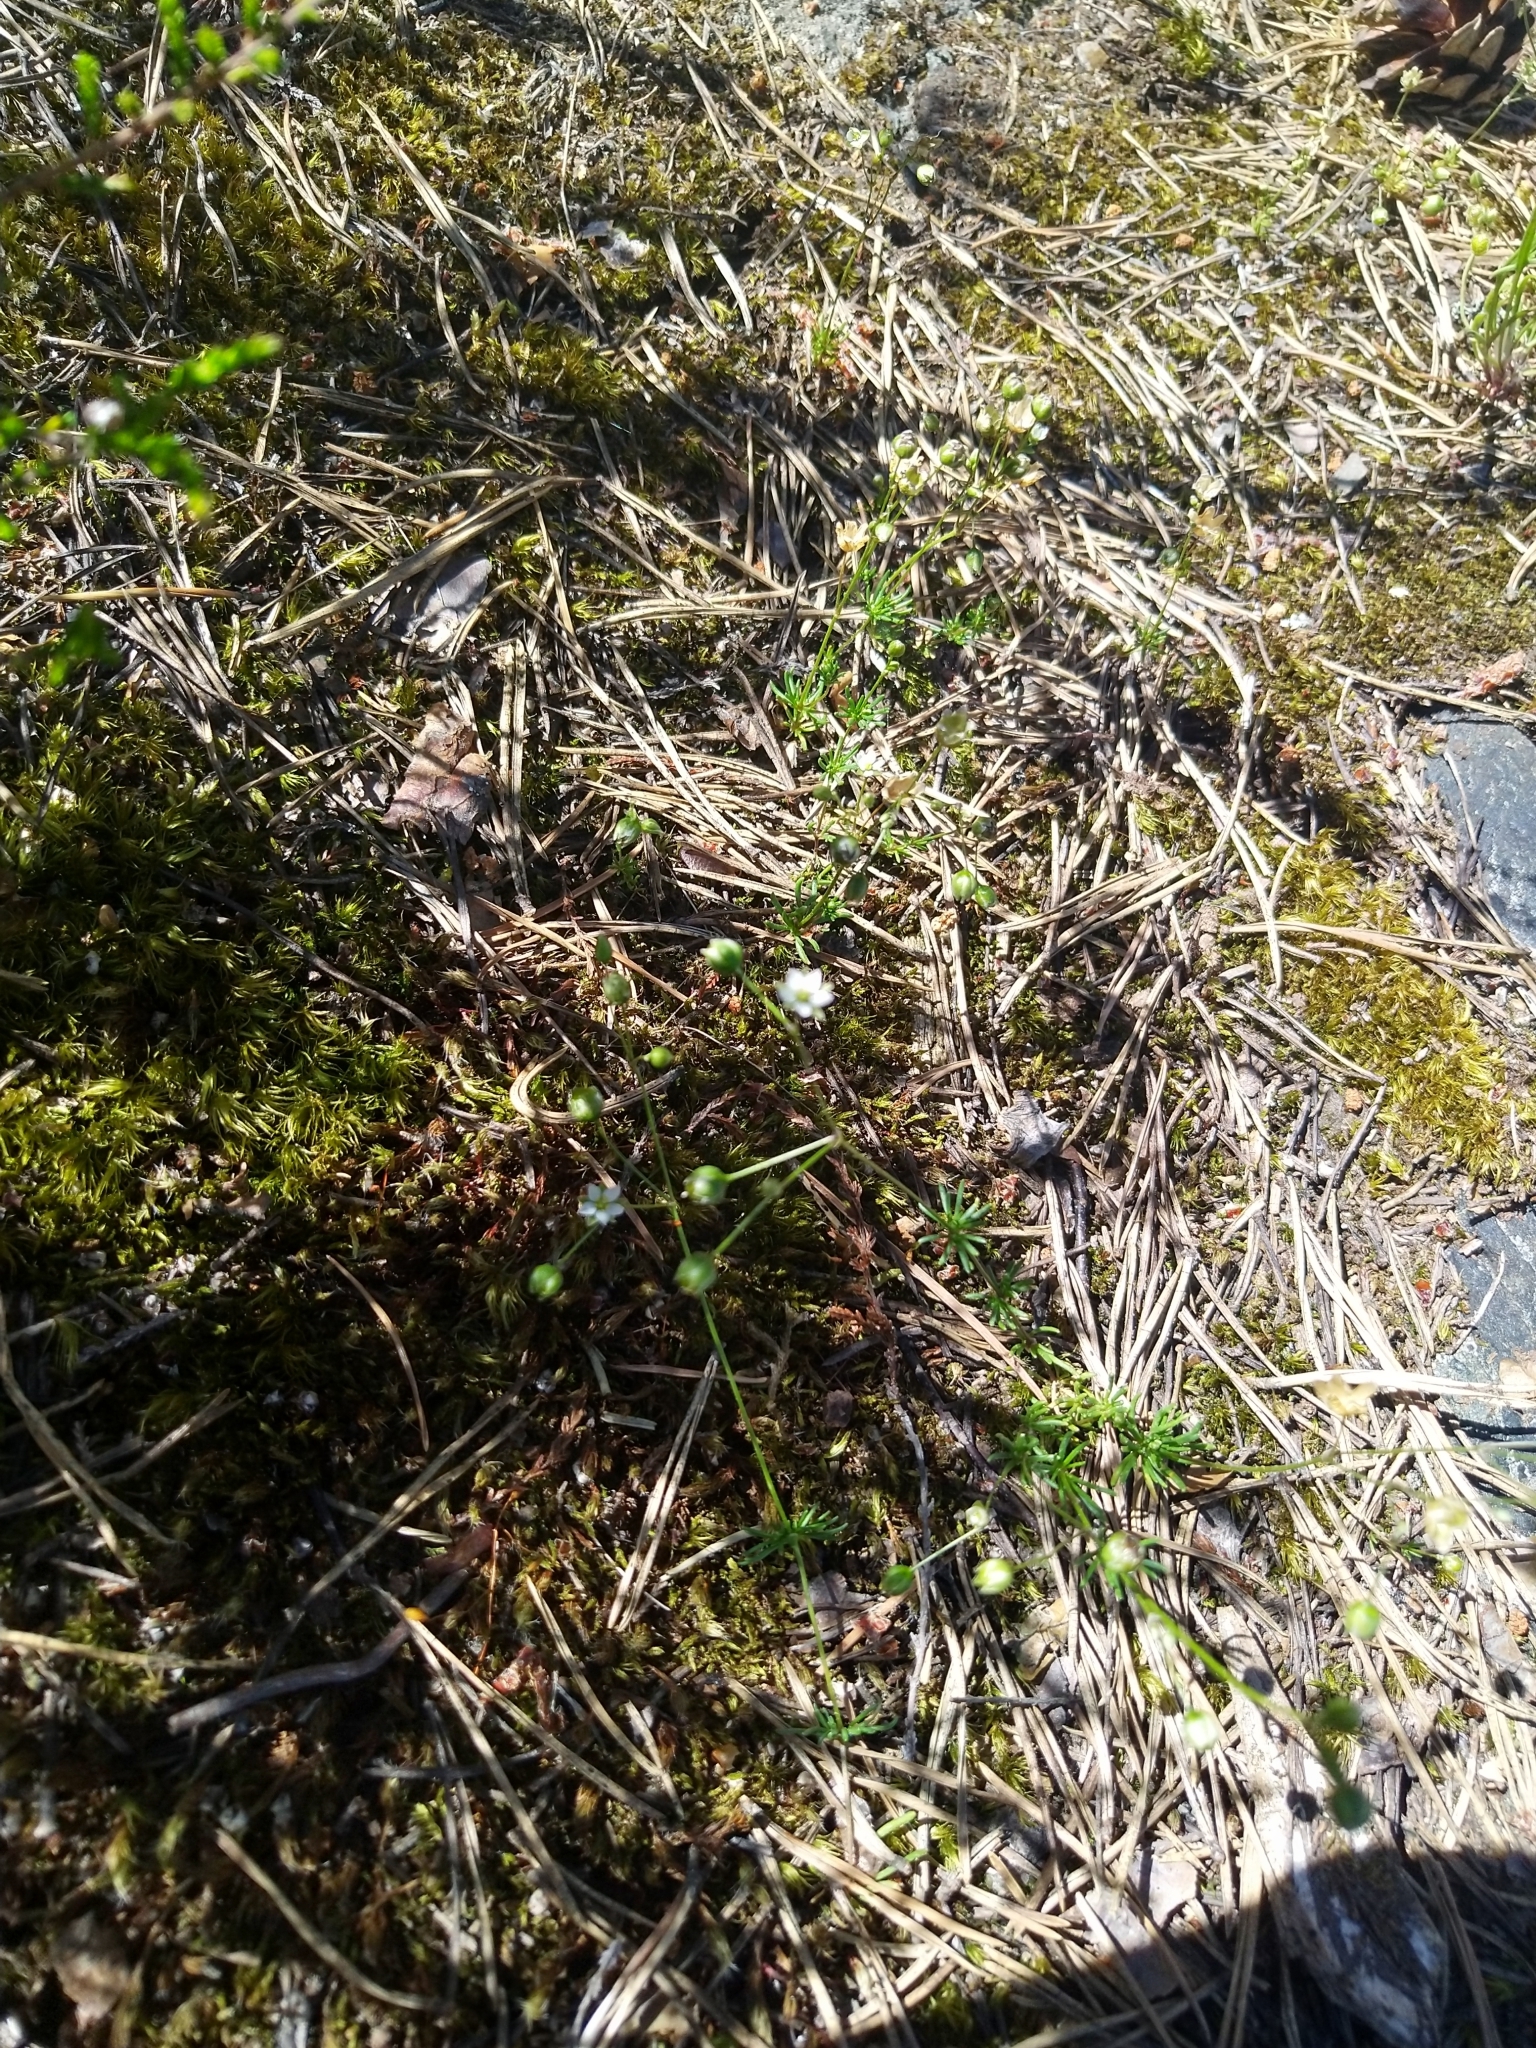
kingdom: Plantae
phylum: Tracheophyta
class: Magnoliopsida
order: Caryophyllales
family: Caryophyllaceae
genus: Spergula
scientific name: Spergula morisonii
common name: Pearlwort spurrey
